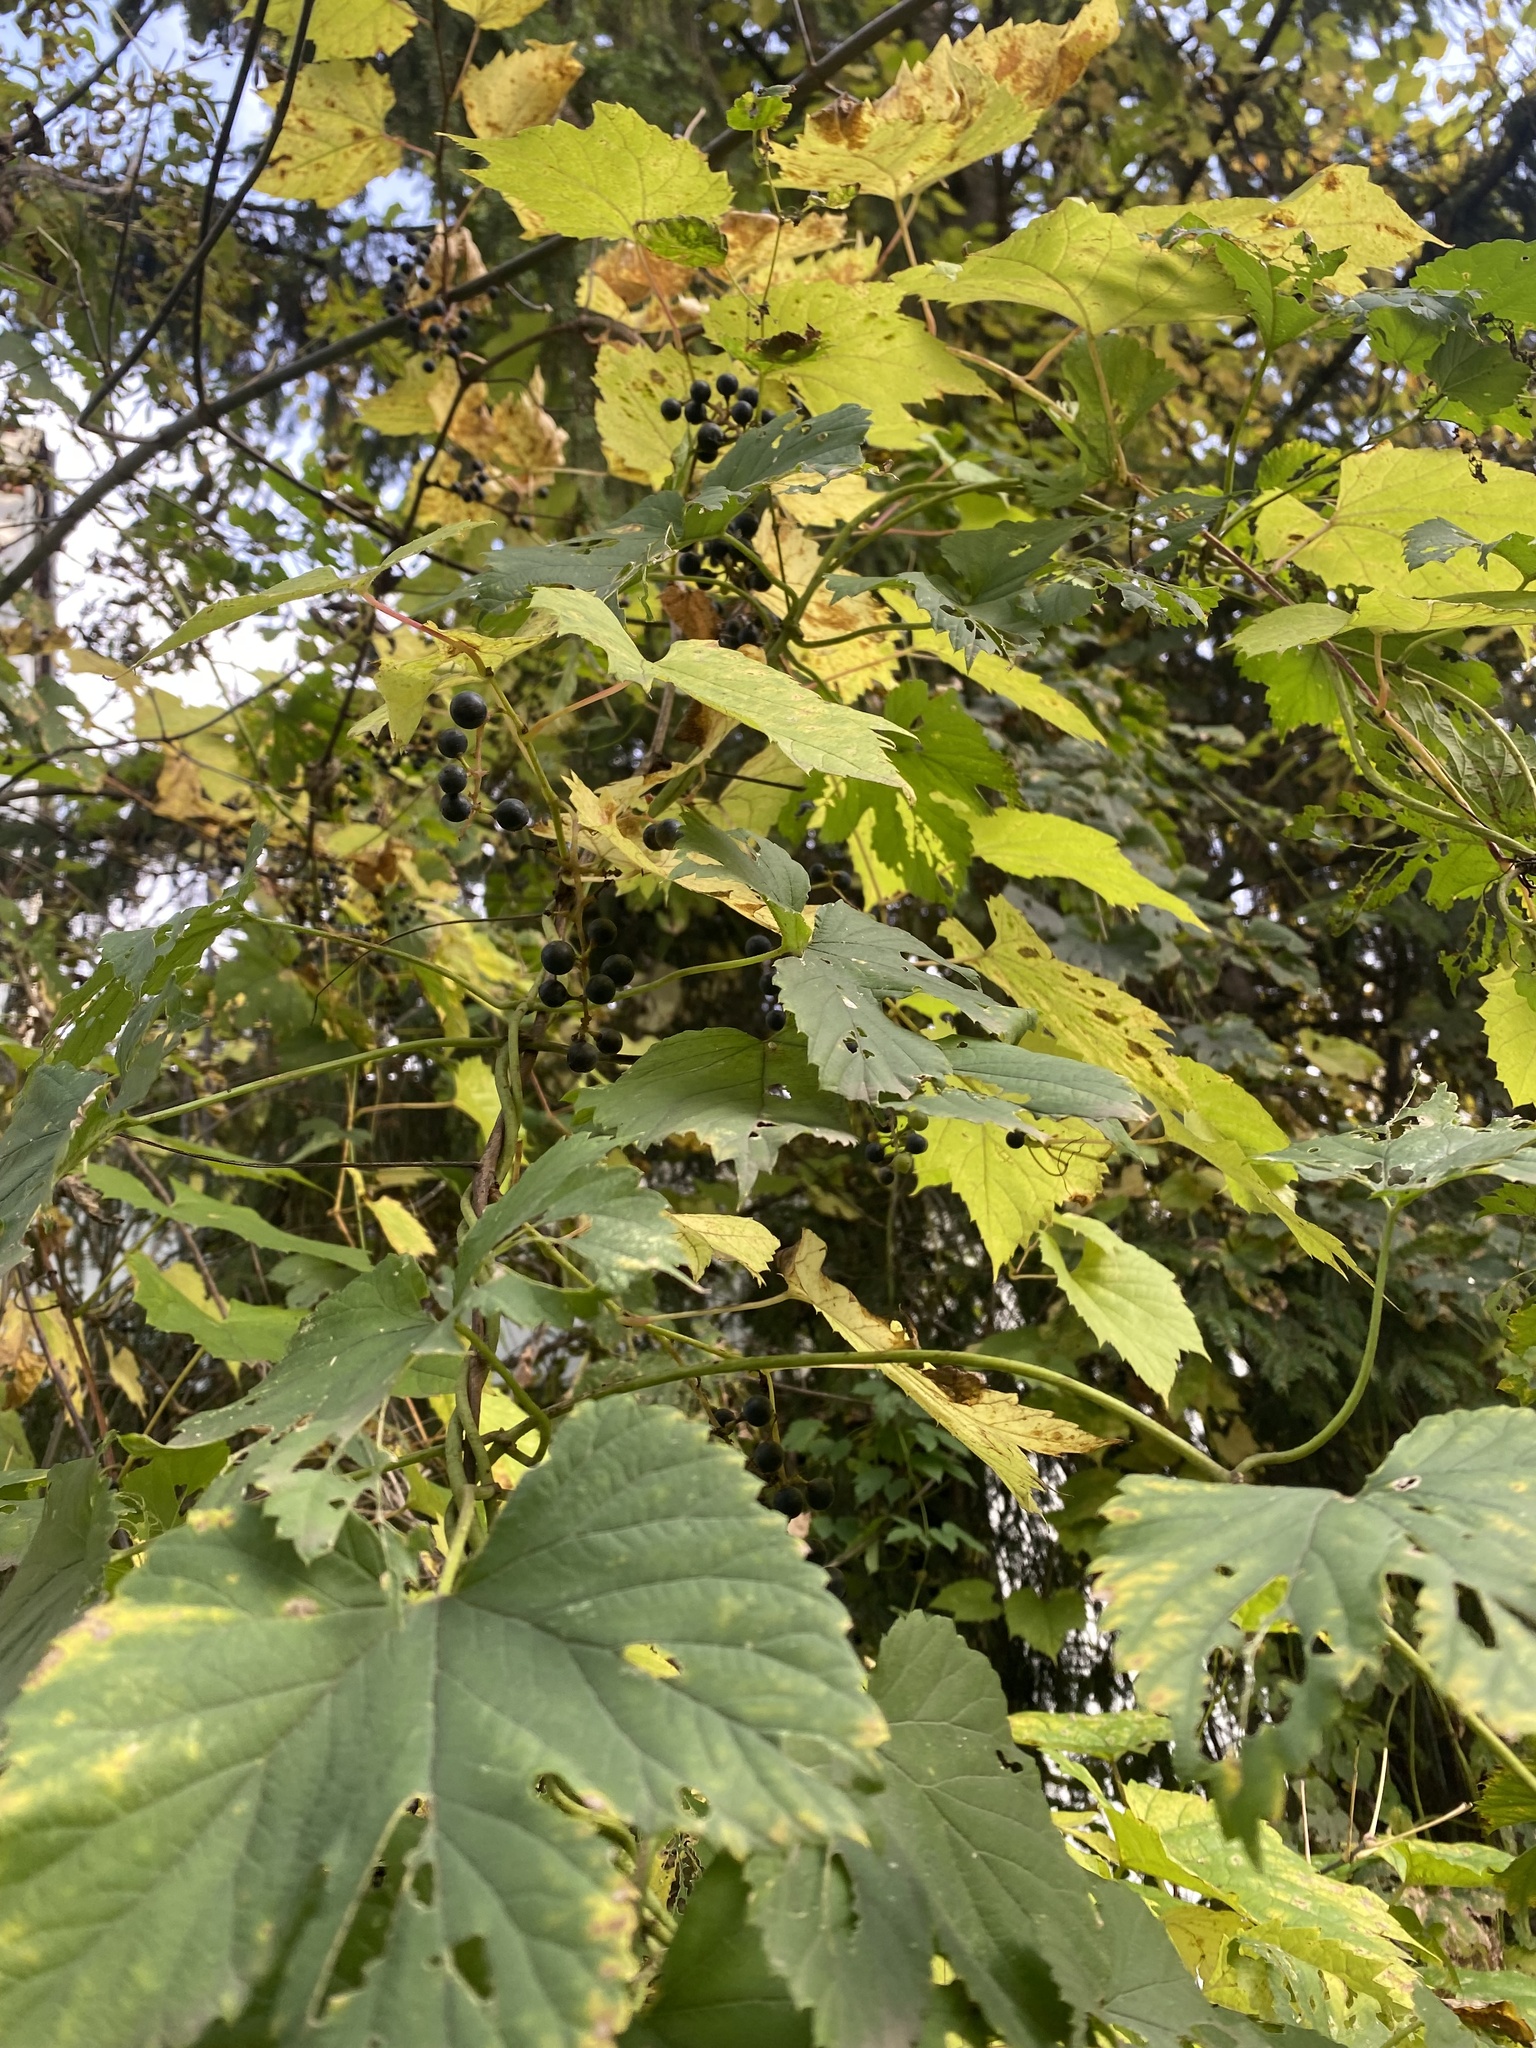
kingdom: Plantae
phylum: Tracheophyta
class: Magnoliopsida
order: Rosales
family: Cannabaceae
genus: Humulus
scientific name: Humulus lupulus
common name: Hop
